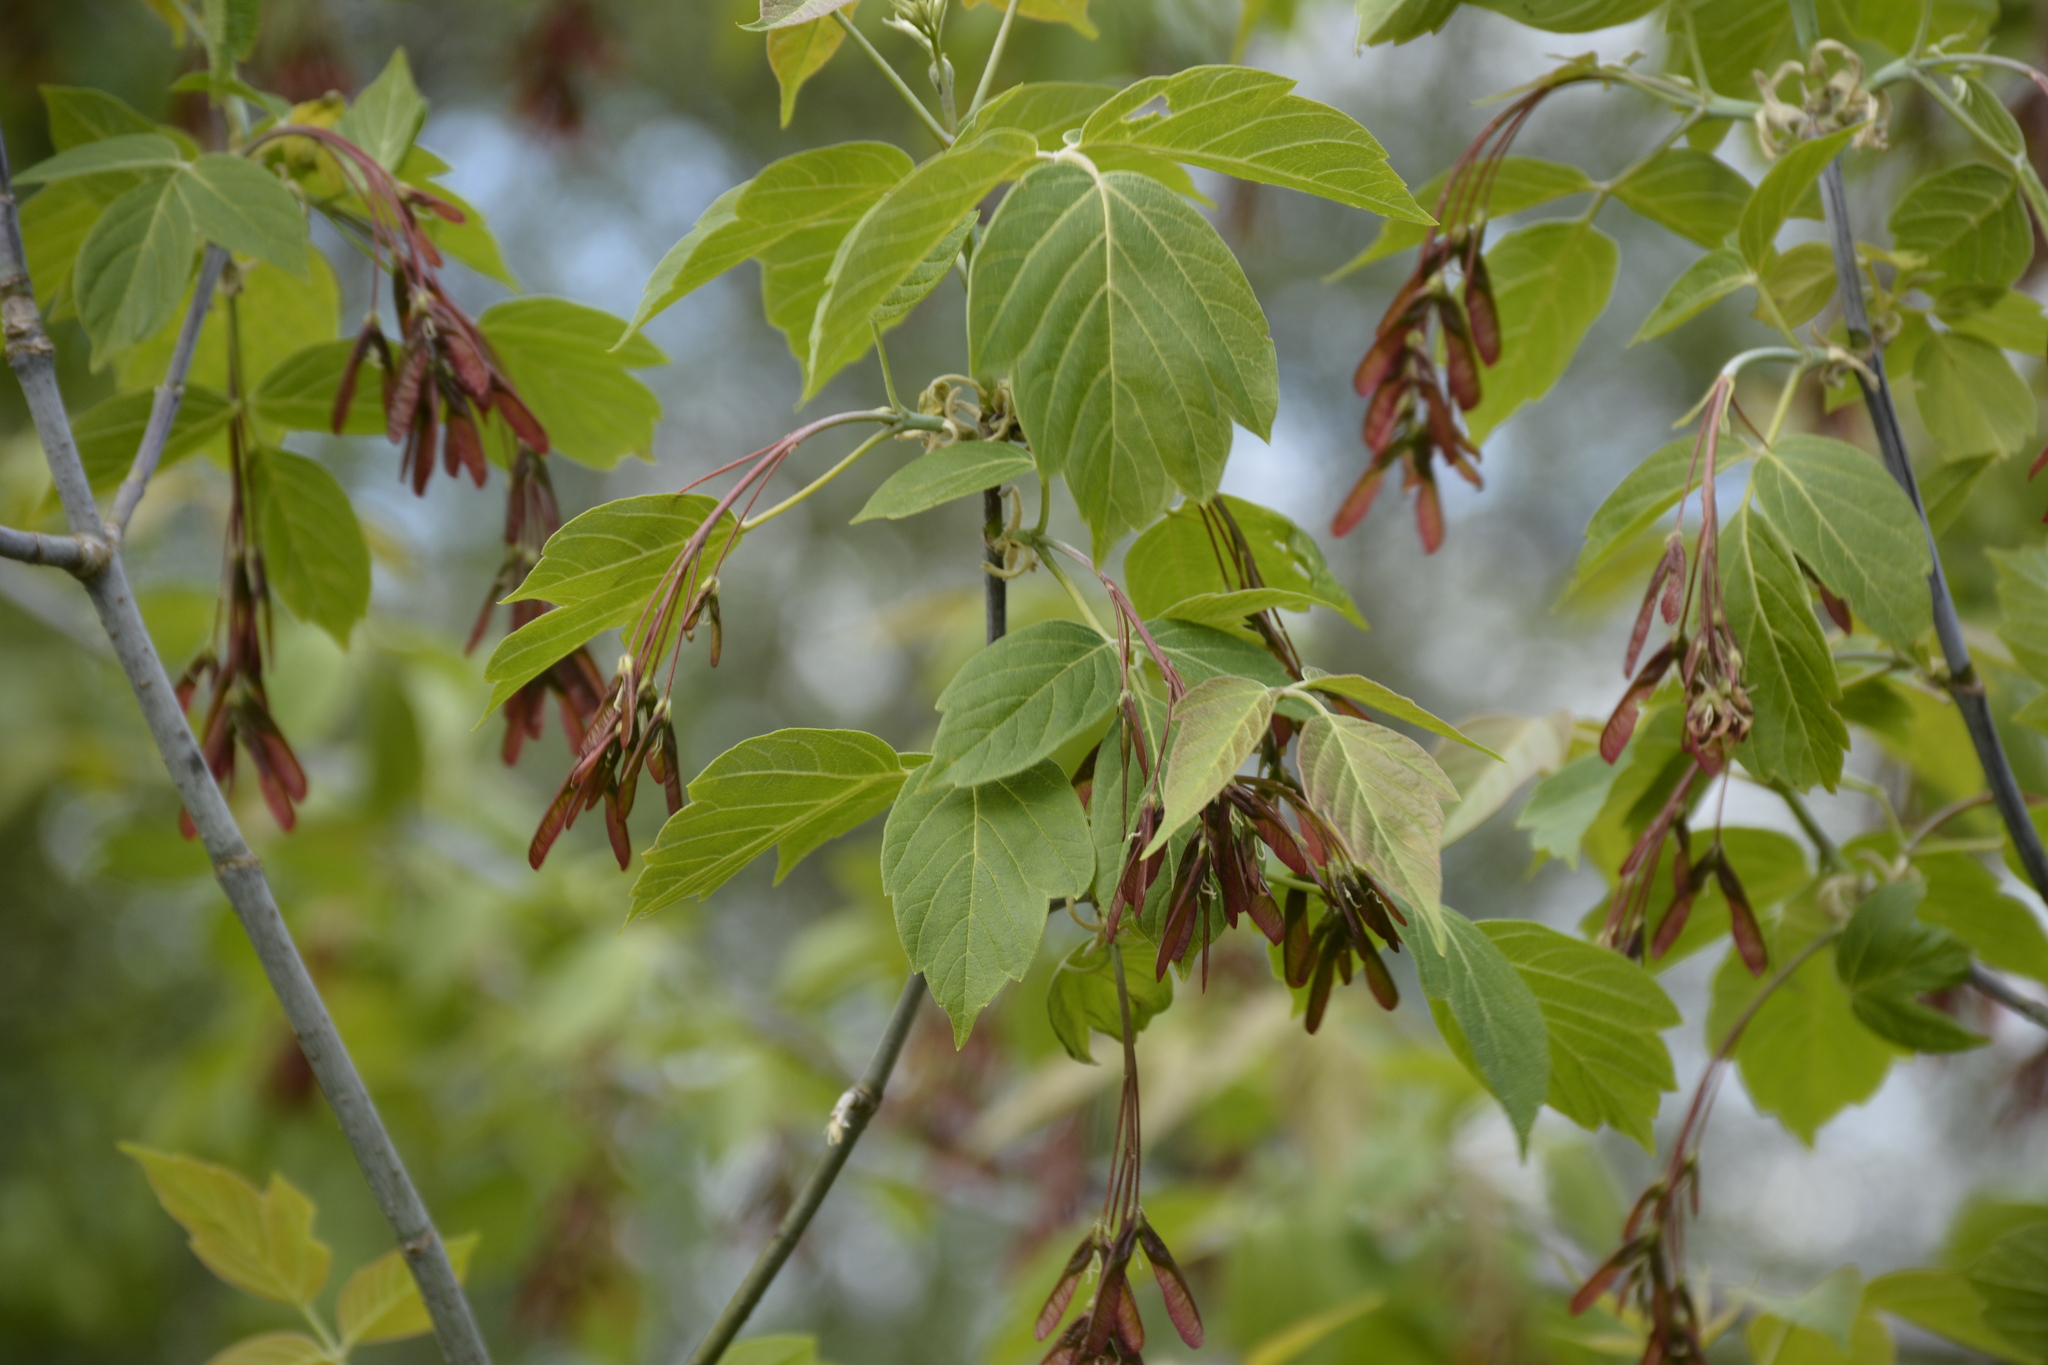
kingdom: Plantae
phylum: Tracheophyta
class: Magnoliopsida
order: Sapindales
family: Sapindaceae
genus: Acer
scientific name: Acer negundo
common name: Ashleaf maple
